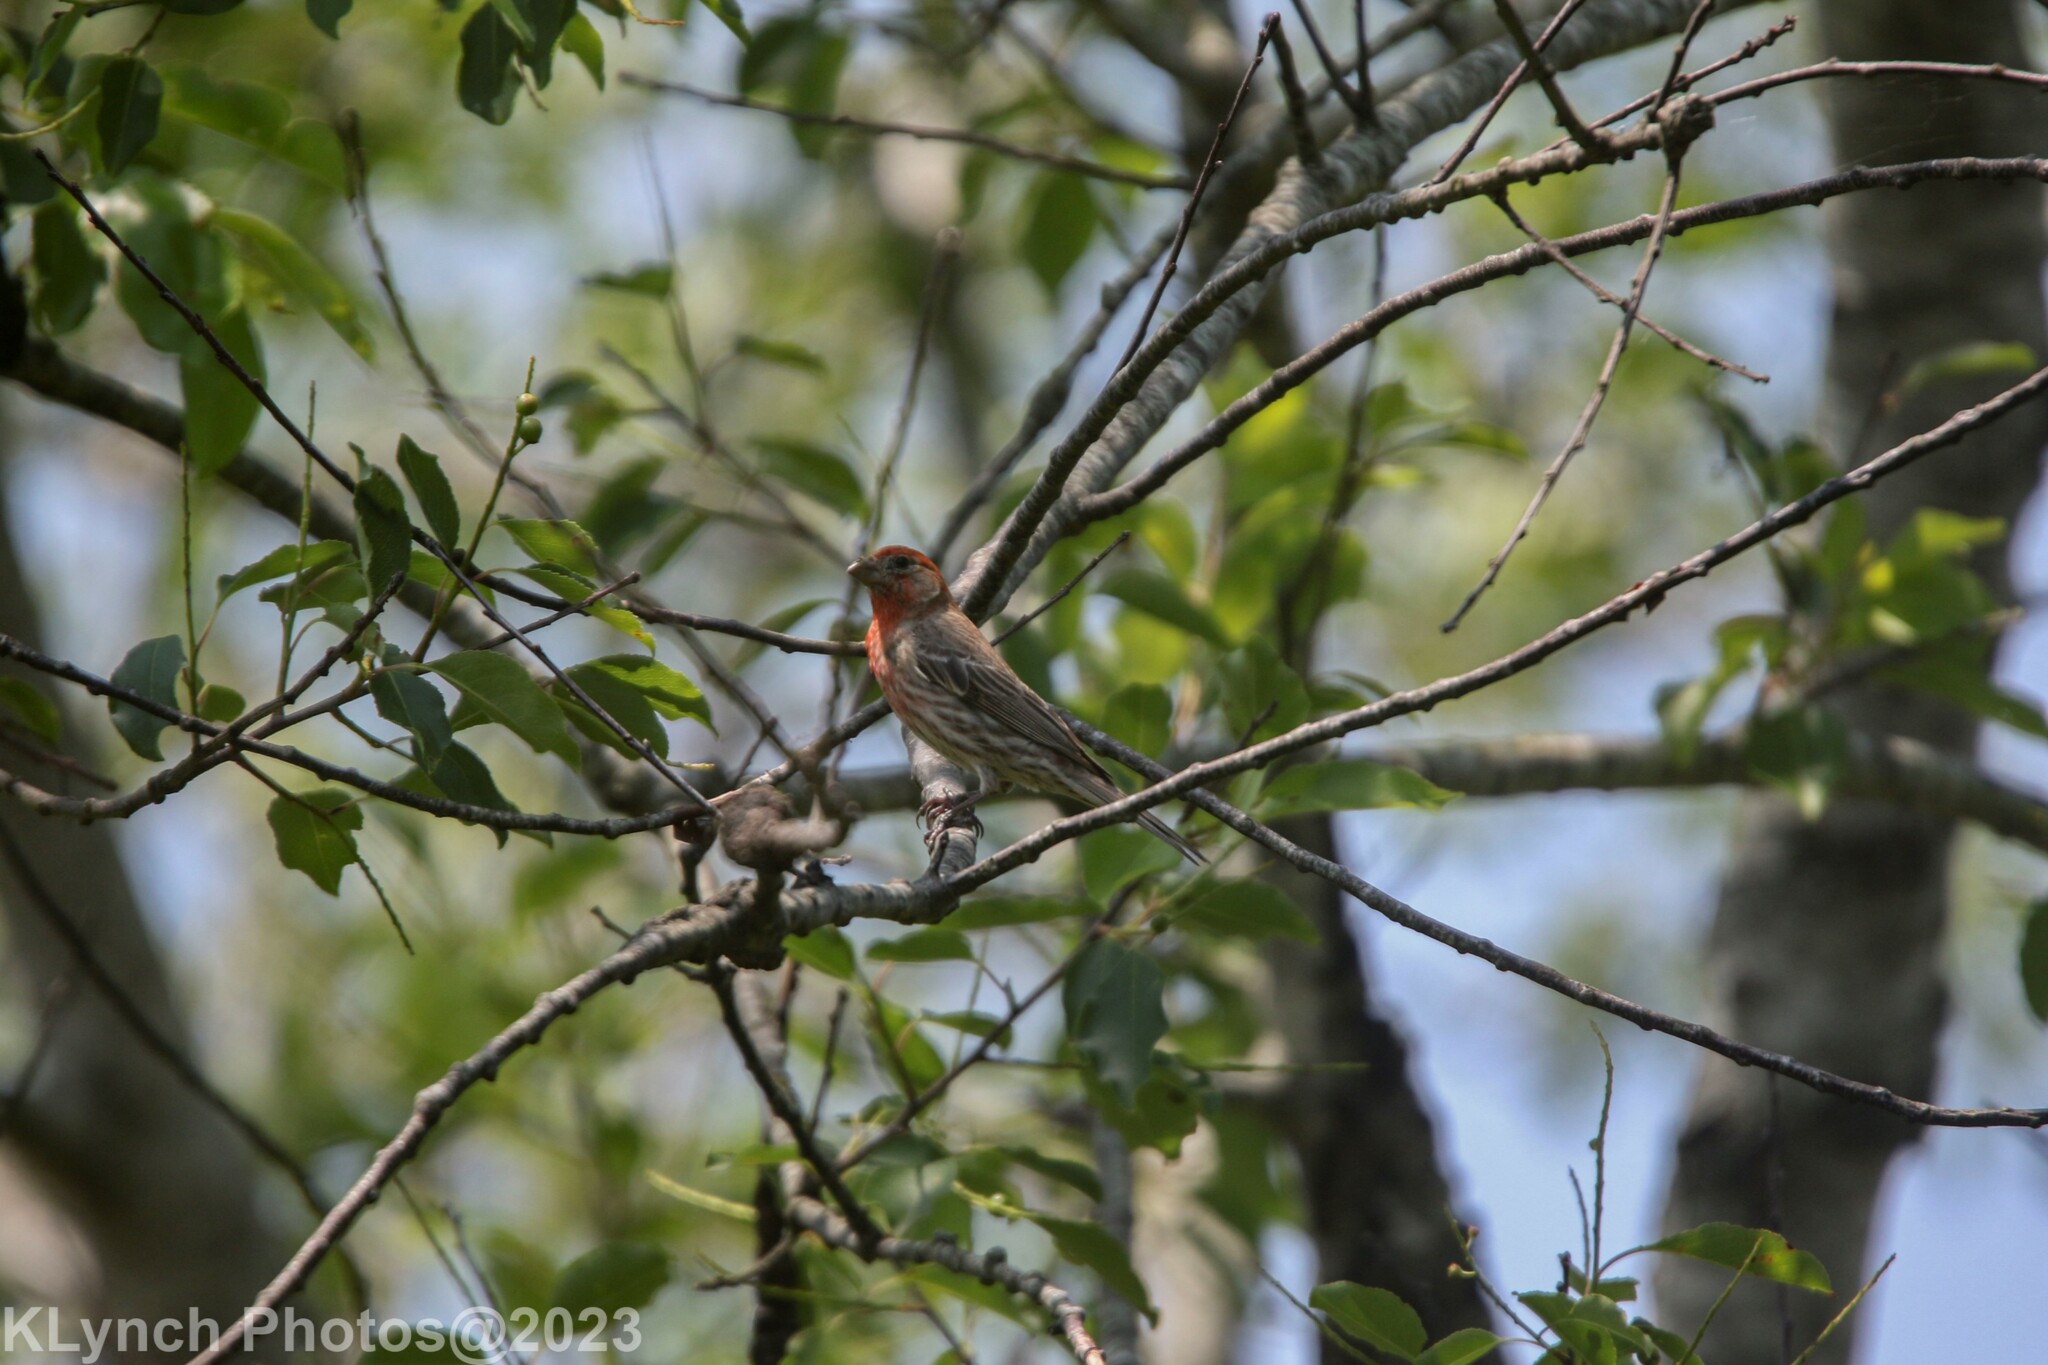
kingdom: Animalia
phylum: Chordata
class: Aves
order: Passeriformes
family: Fringillidae
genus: Haemorhous
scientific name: Haemorhous mexicanus
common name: House finch
